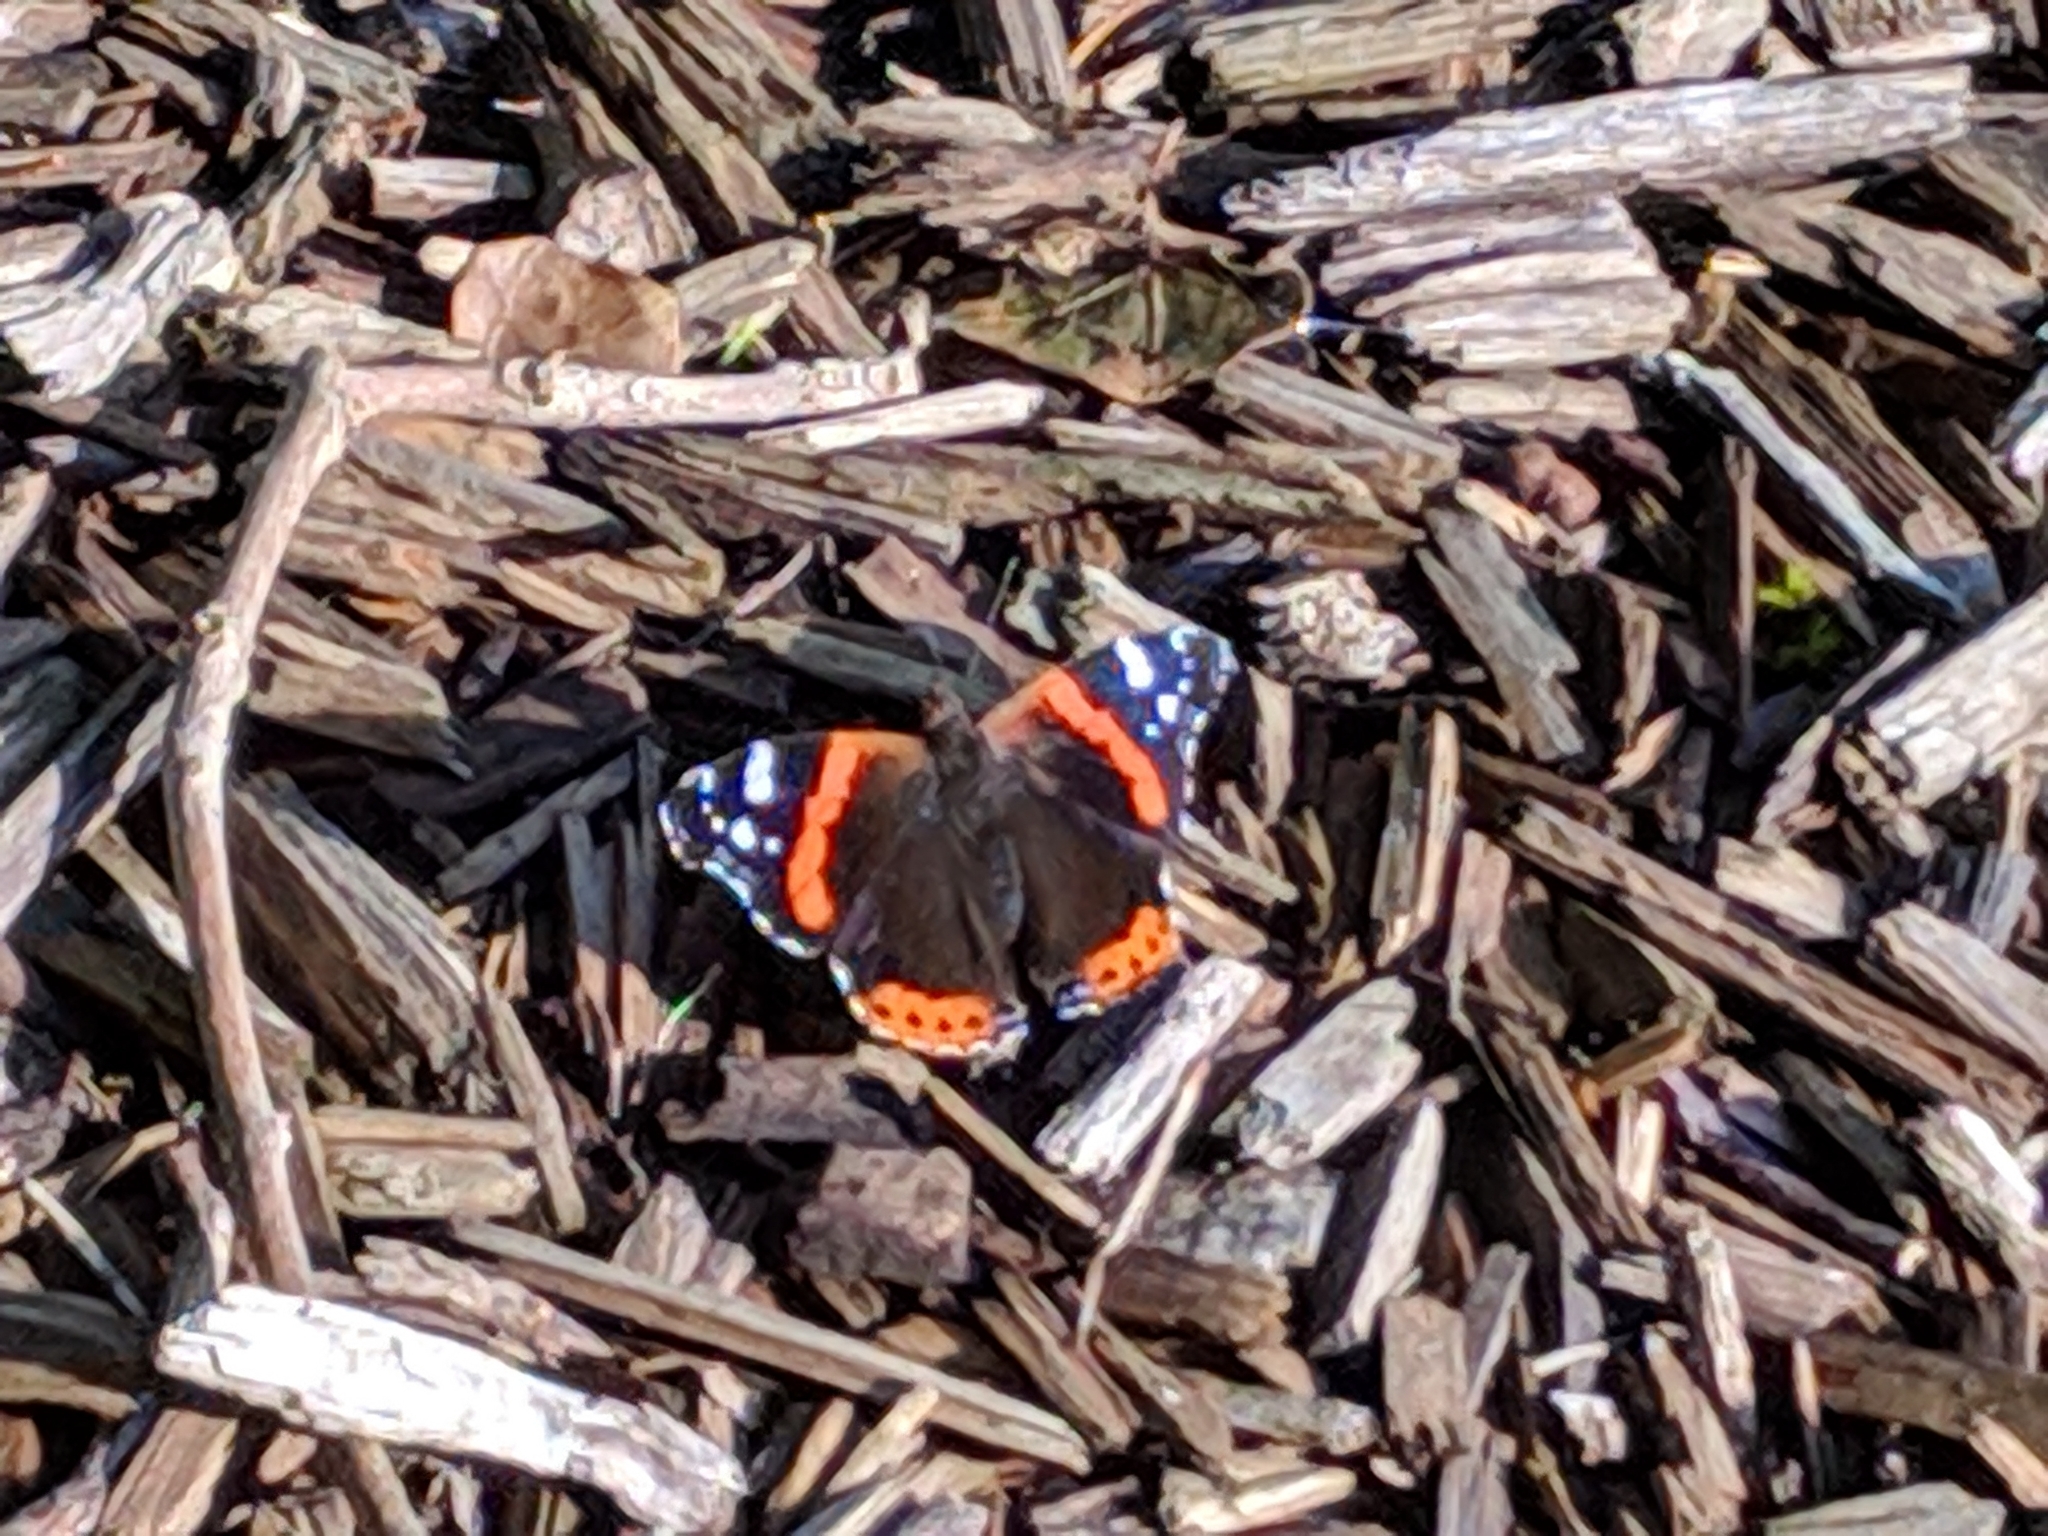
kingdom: Animalia
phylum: Arthropoda
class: Insecta
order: Lepidoptera
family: Nymphalidae
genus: Vanessa
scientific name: Vanessa atalanta
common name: Red admiral
